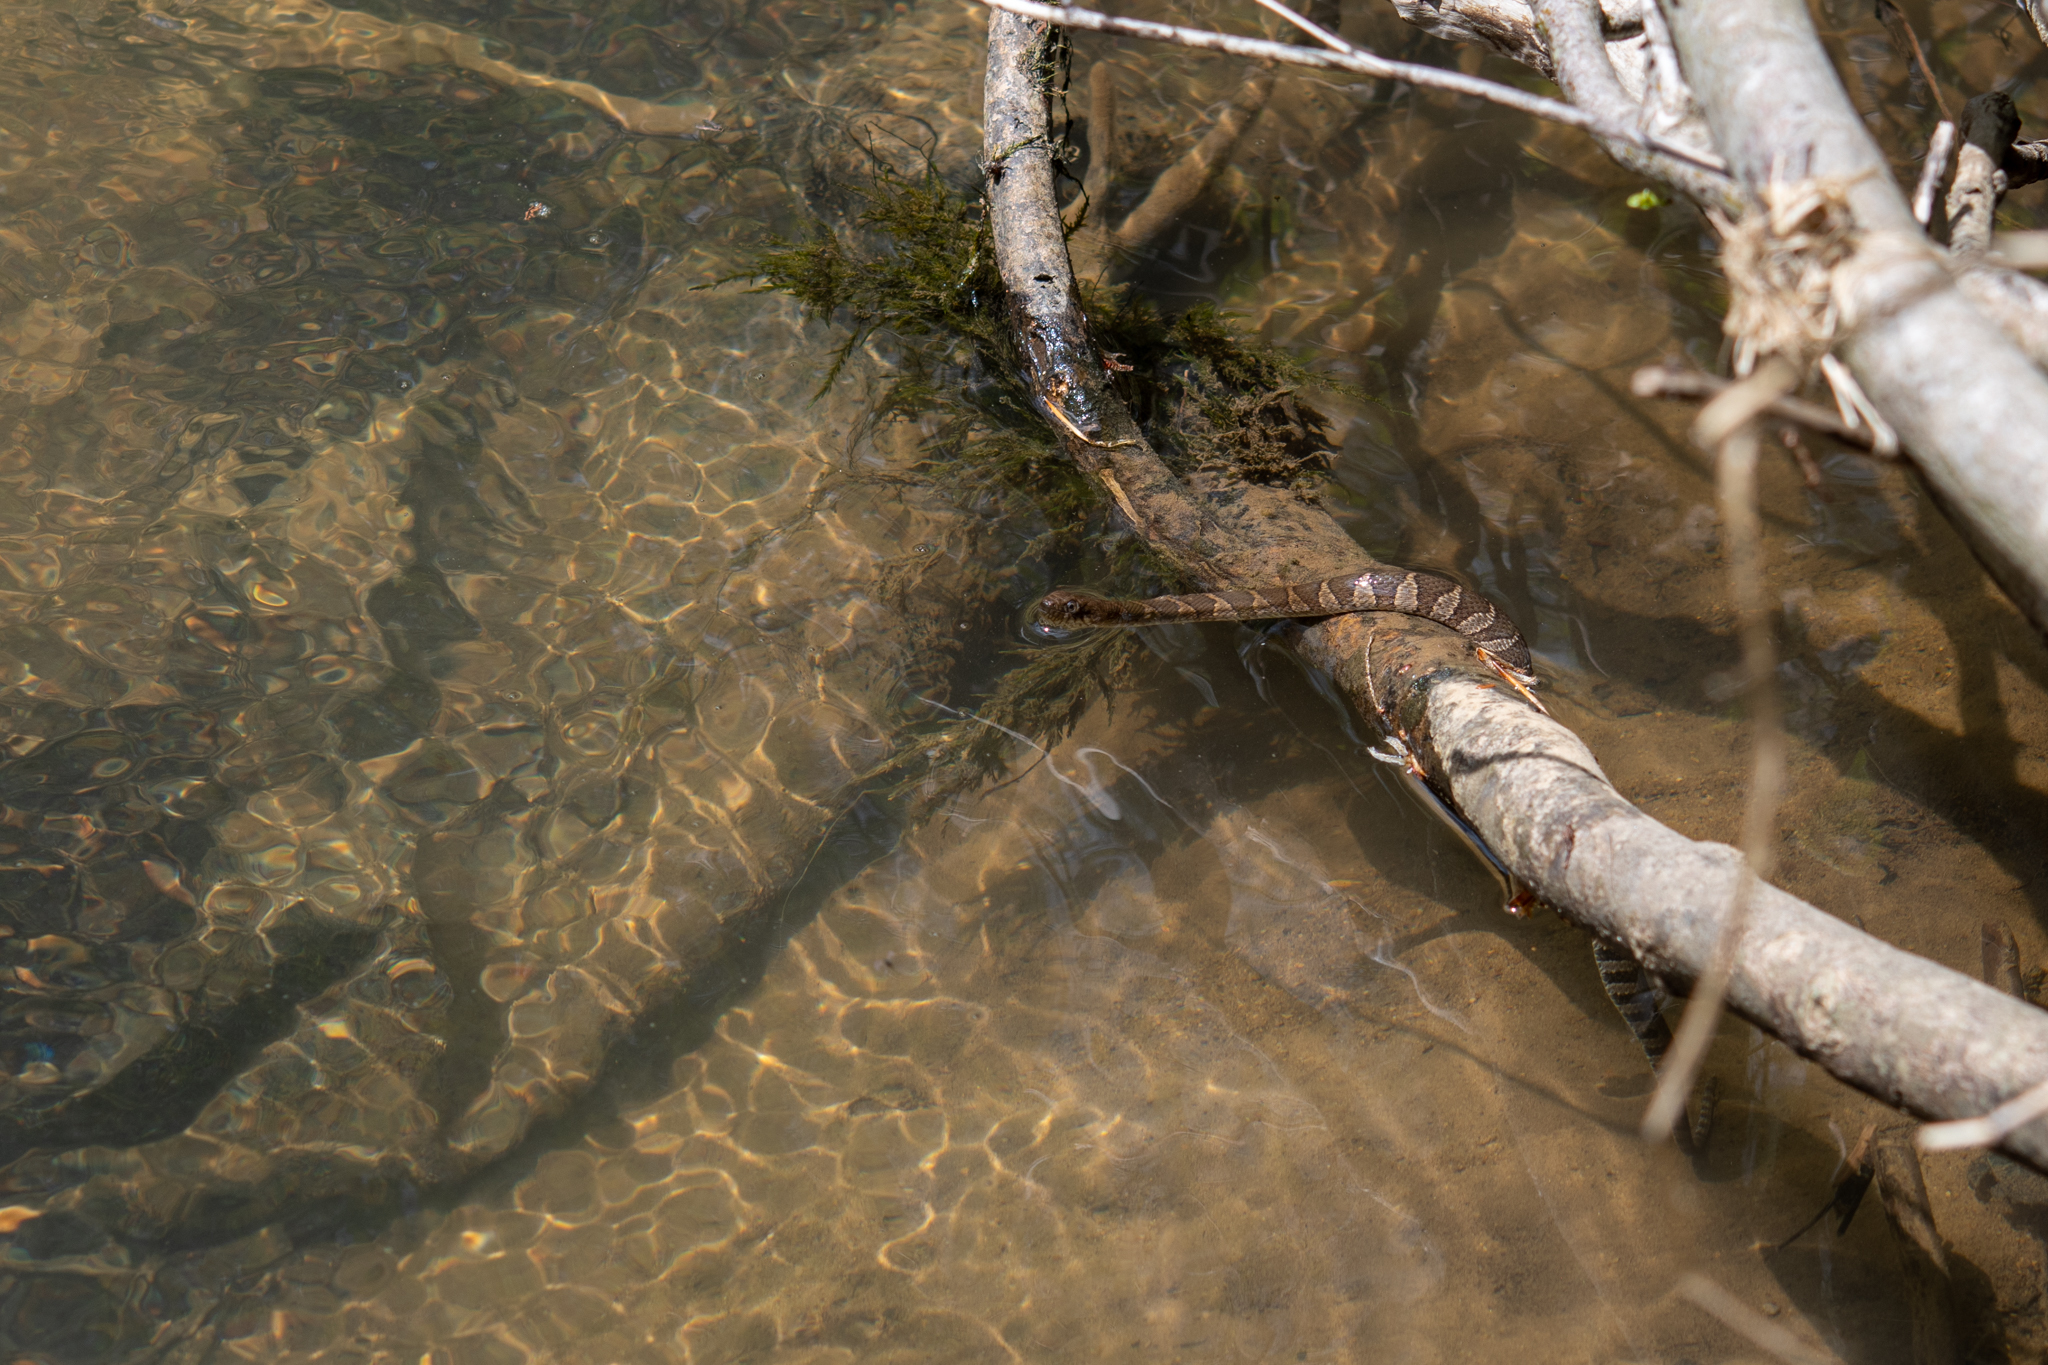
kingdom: Animalia
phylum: Chordata
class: Squamata
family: Colubridae
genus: Nerodia
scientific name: Nerodia sipedon
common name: Northern water snake
